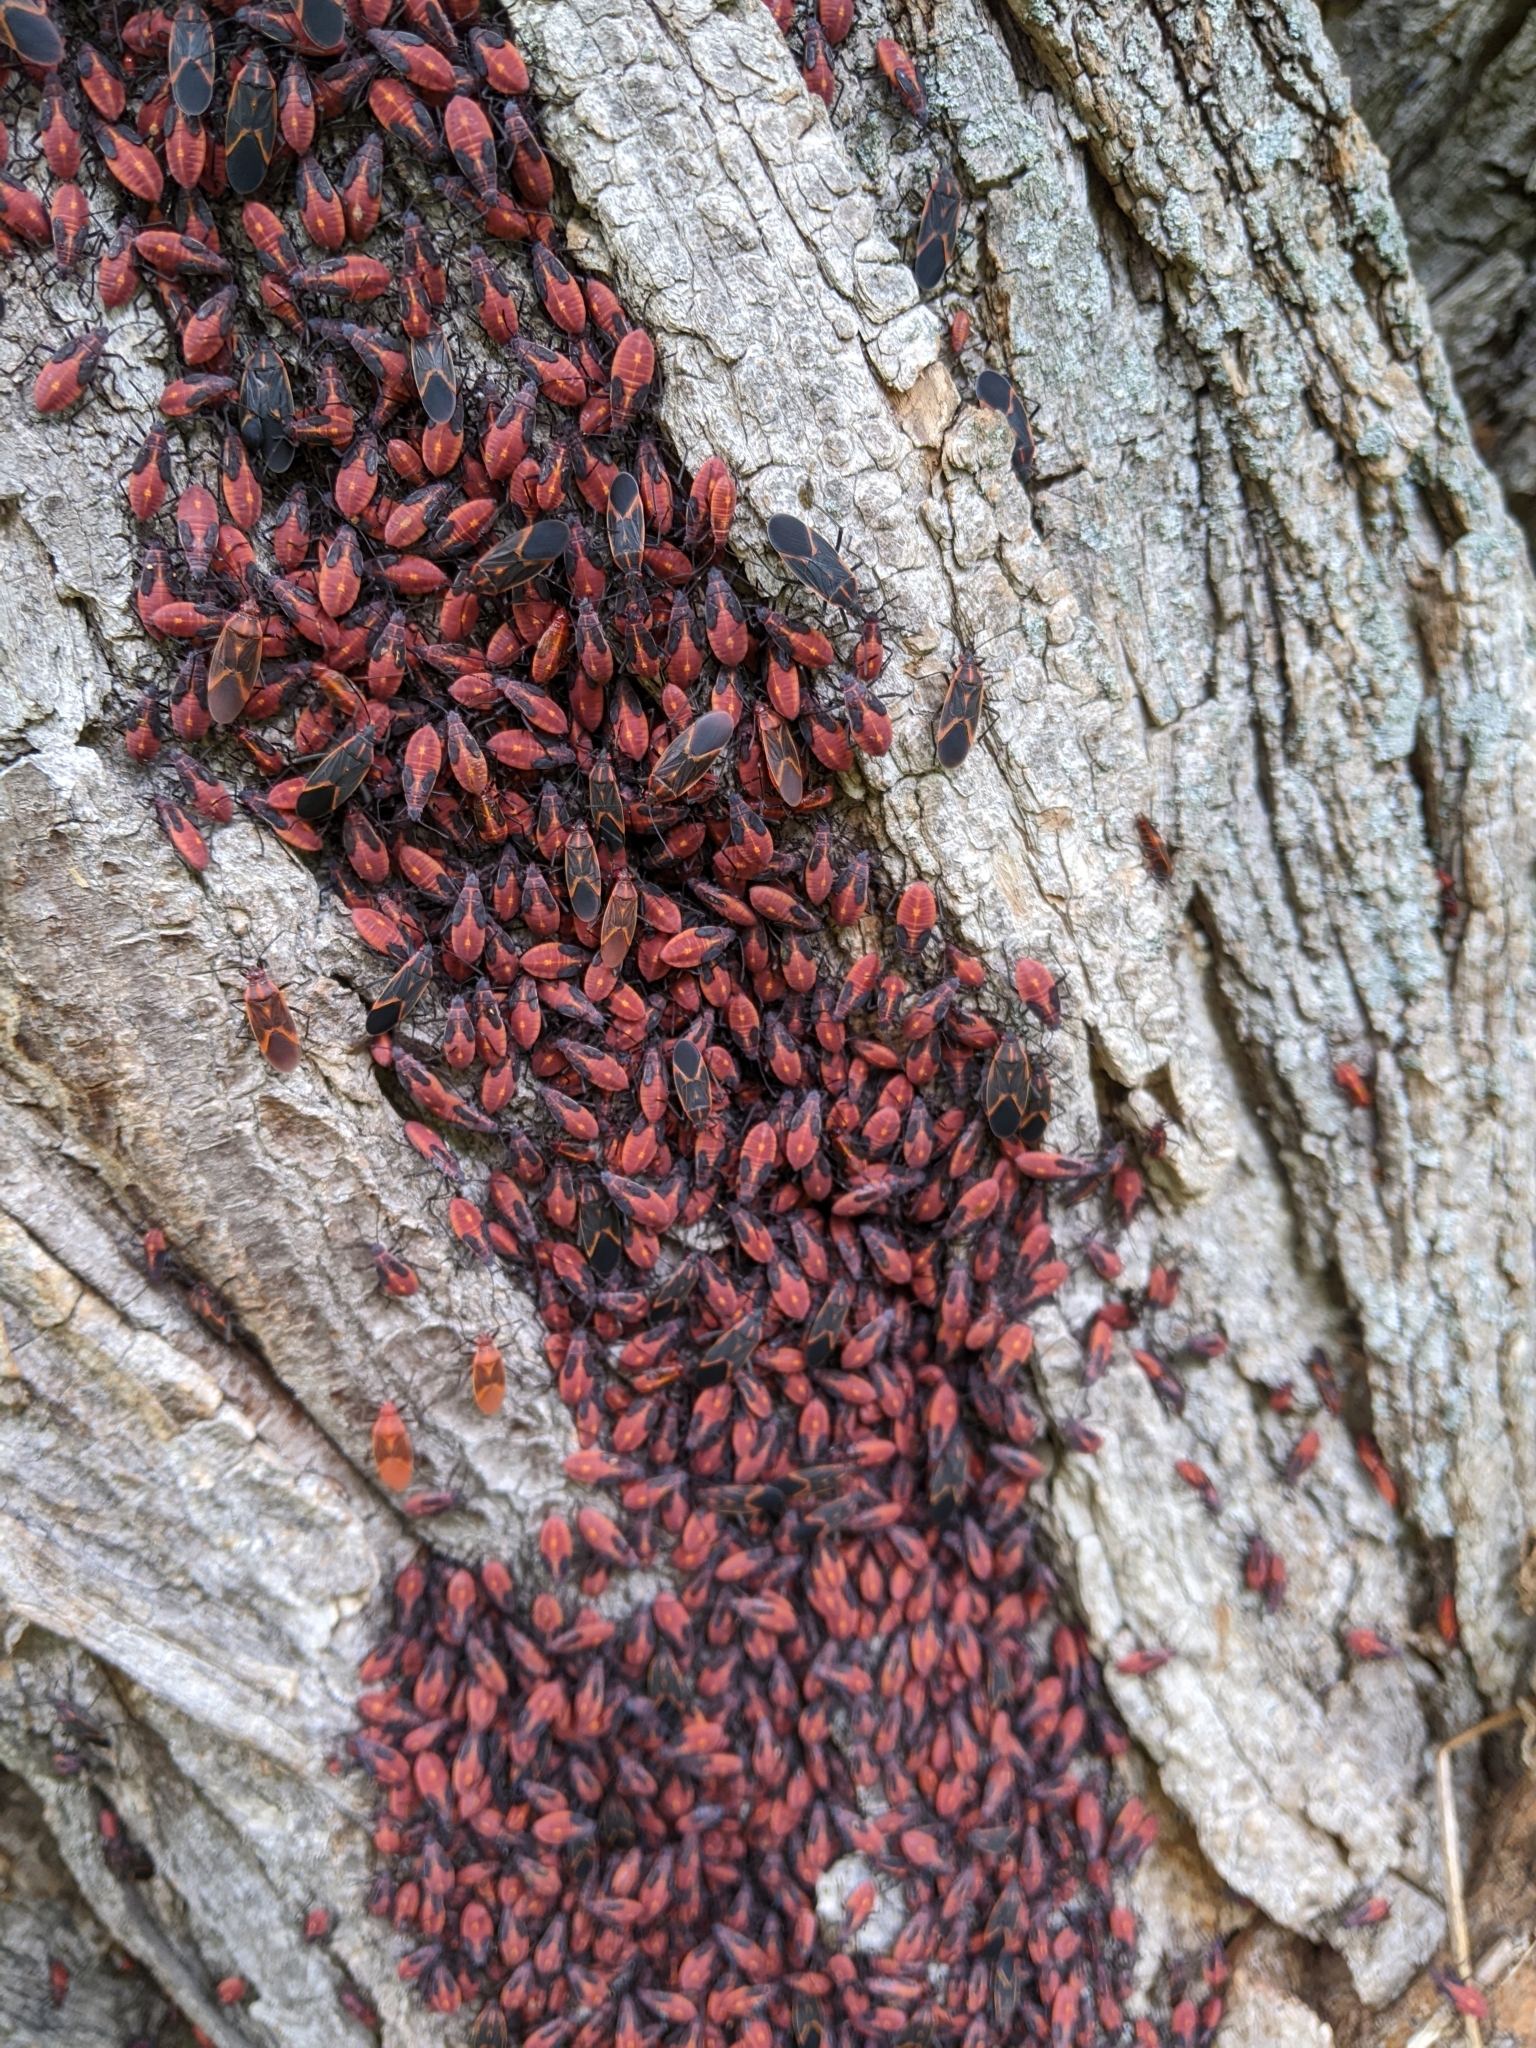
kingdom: Animalia
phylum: Arthropoda
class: Insecta
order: Hemiptera
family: Rhopalidae
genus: Boisea
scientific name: Boisea trivittata
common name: Boxelder bug
